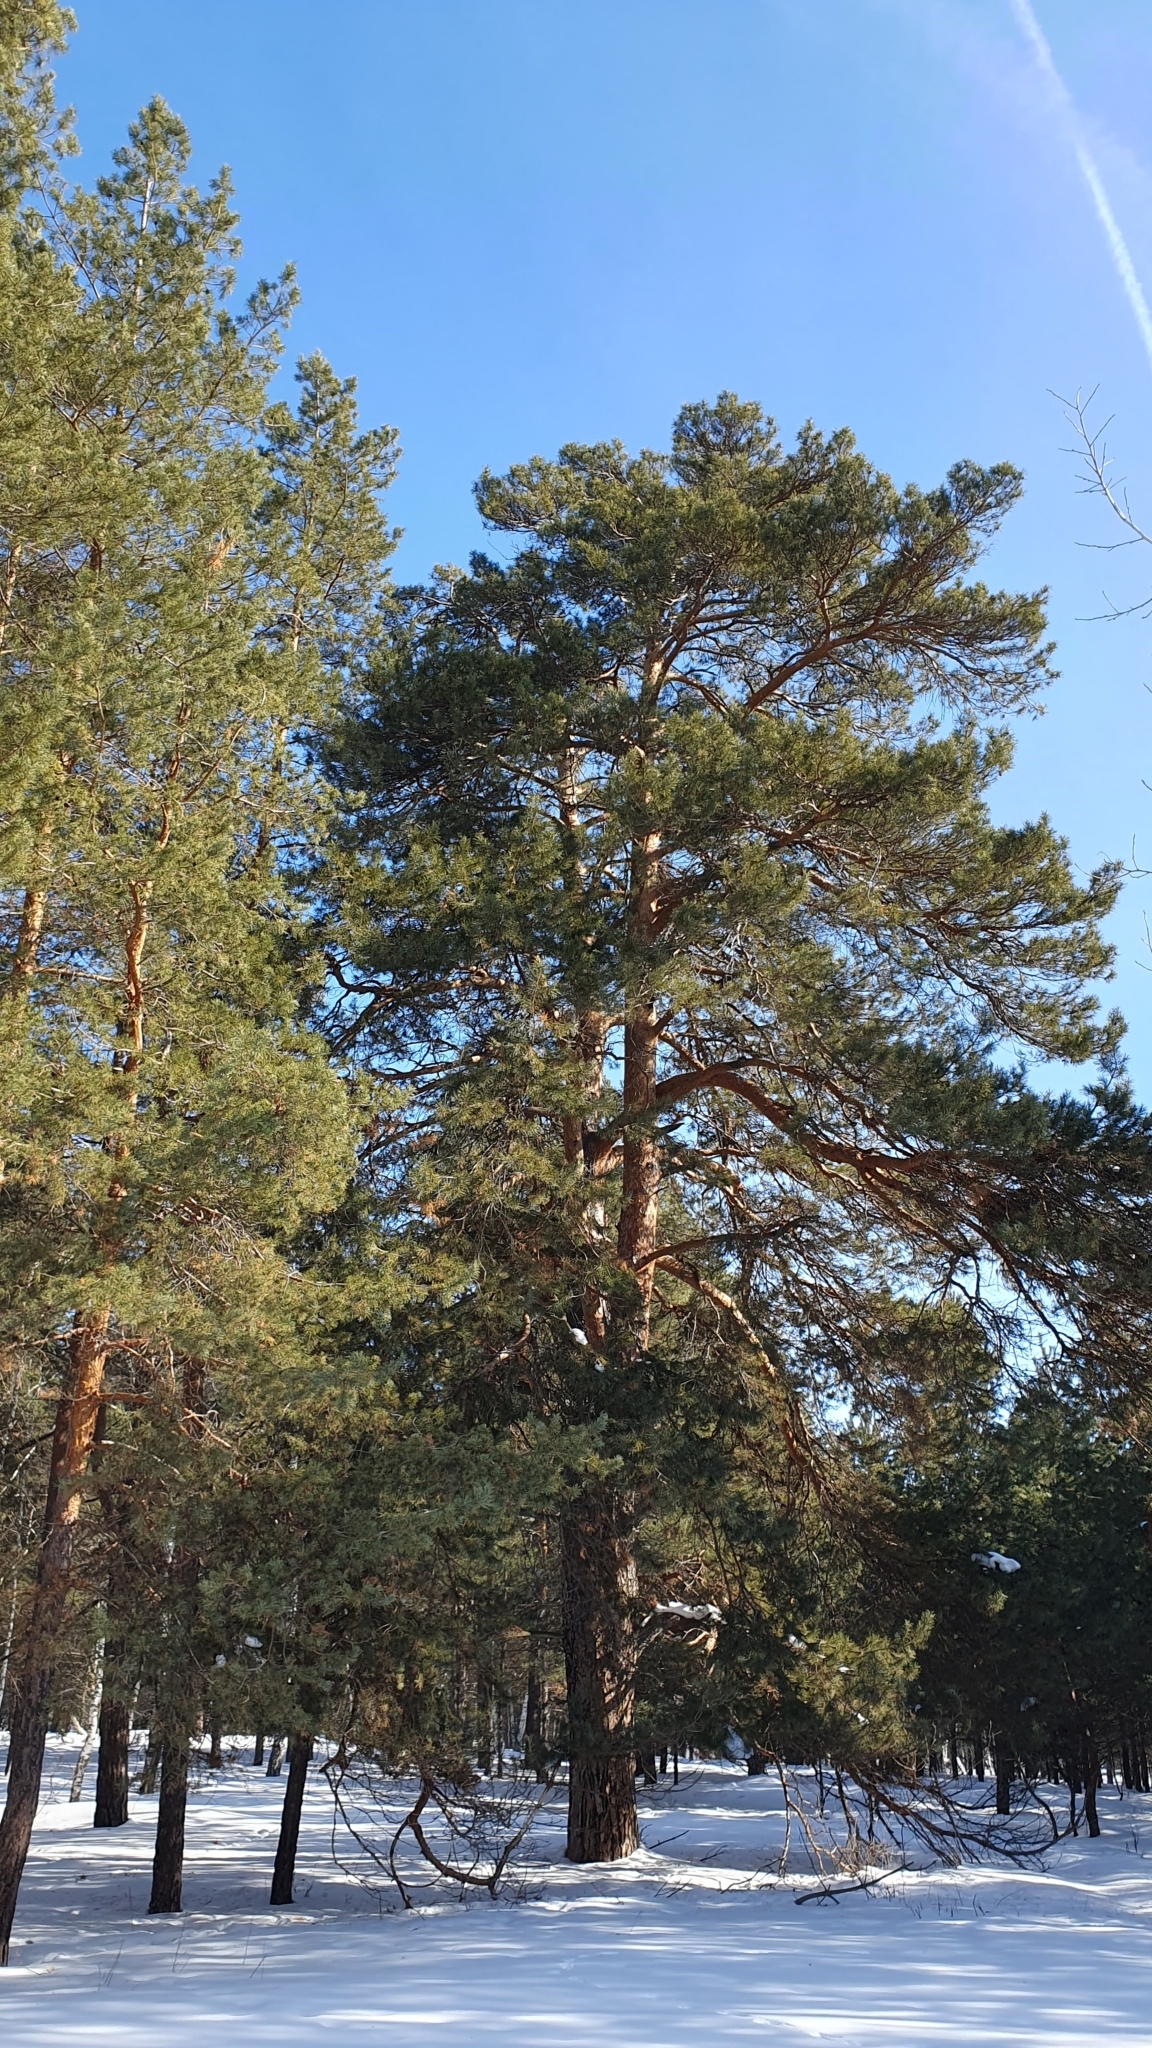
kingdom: Plantae
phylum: Tracheophyta
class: Pinopsida
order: Pinales
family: Pinaceae
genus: Pinus
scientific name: Pinus sylvestris
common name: Scots pine
